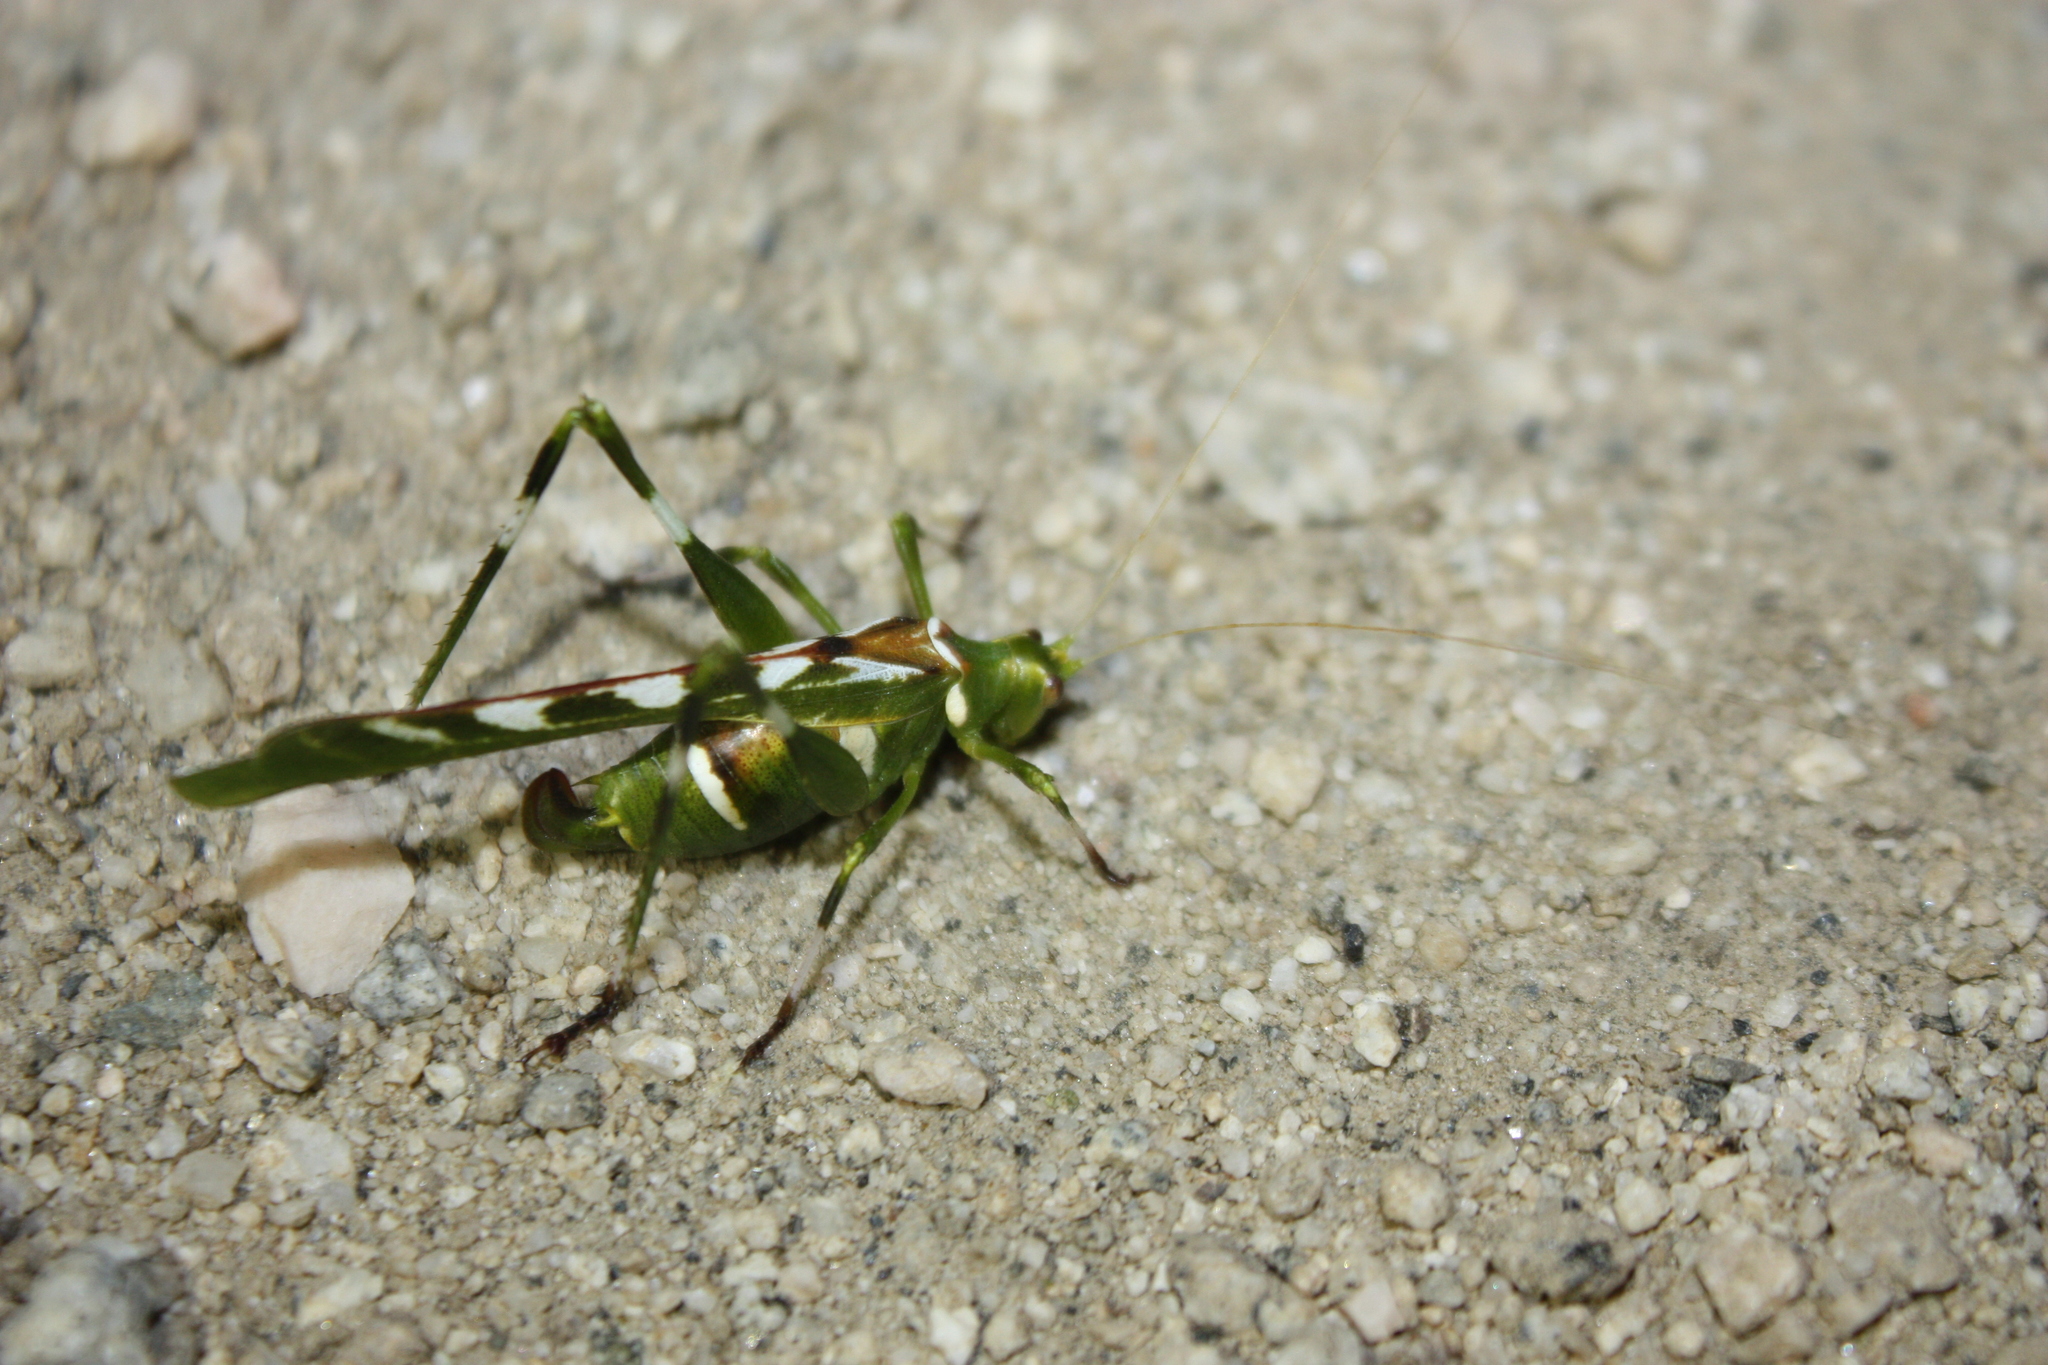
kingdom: Animalia
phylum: Arthropoda
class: Insecta
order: Orthoptera
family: Tettigoniidae
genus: Insara
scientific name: Insara covilleae
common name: Creosote bush katydid
